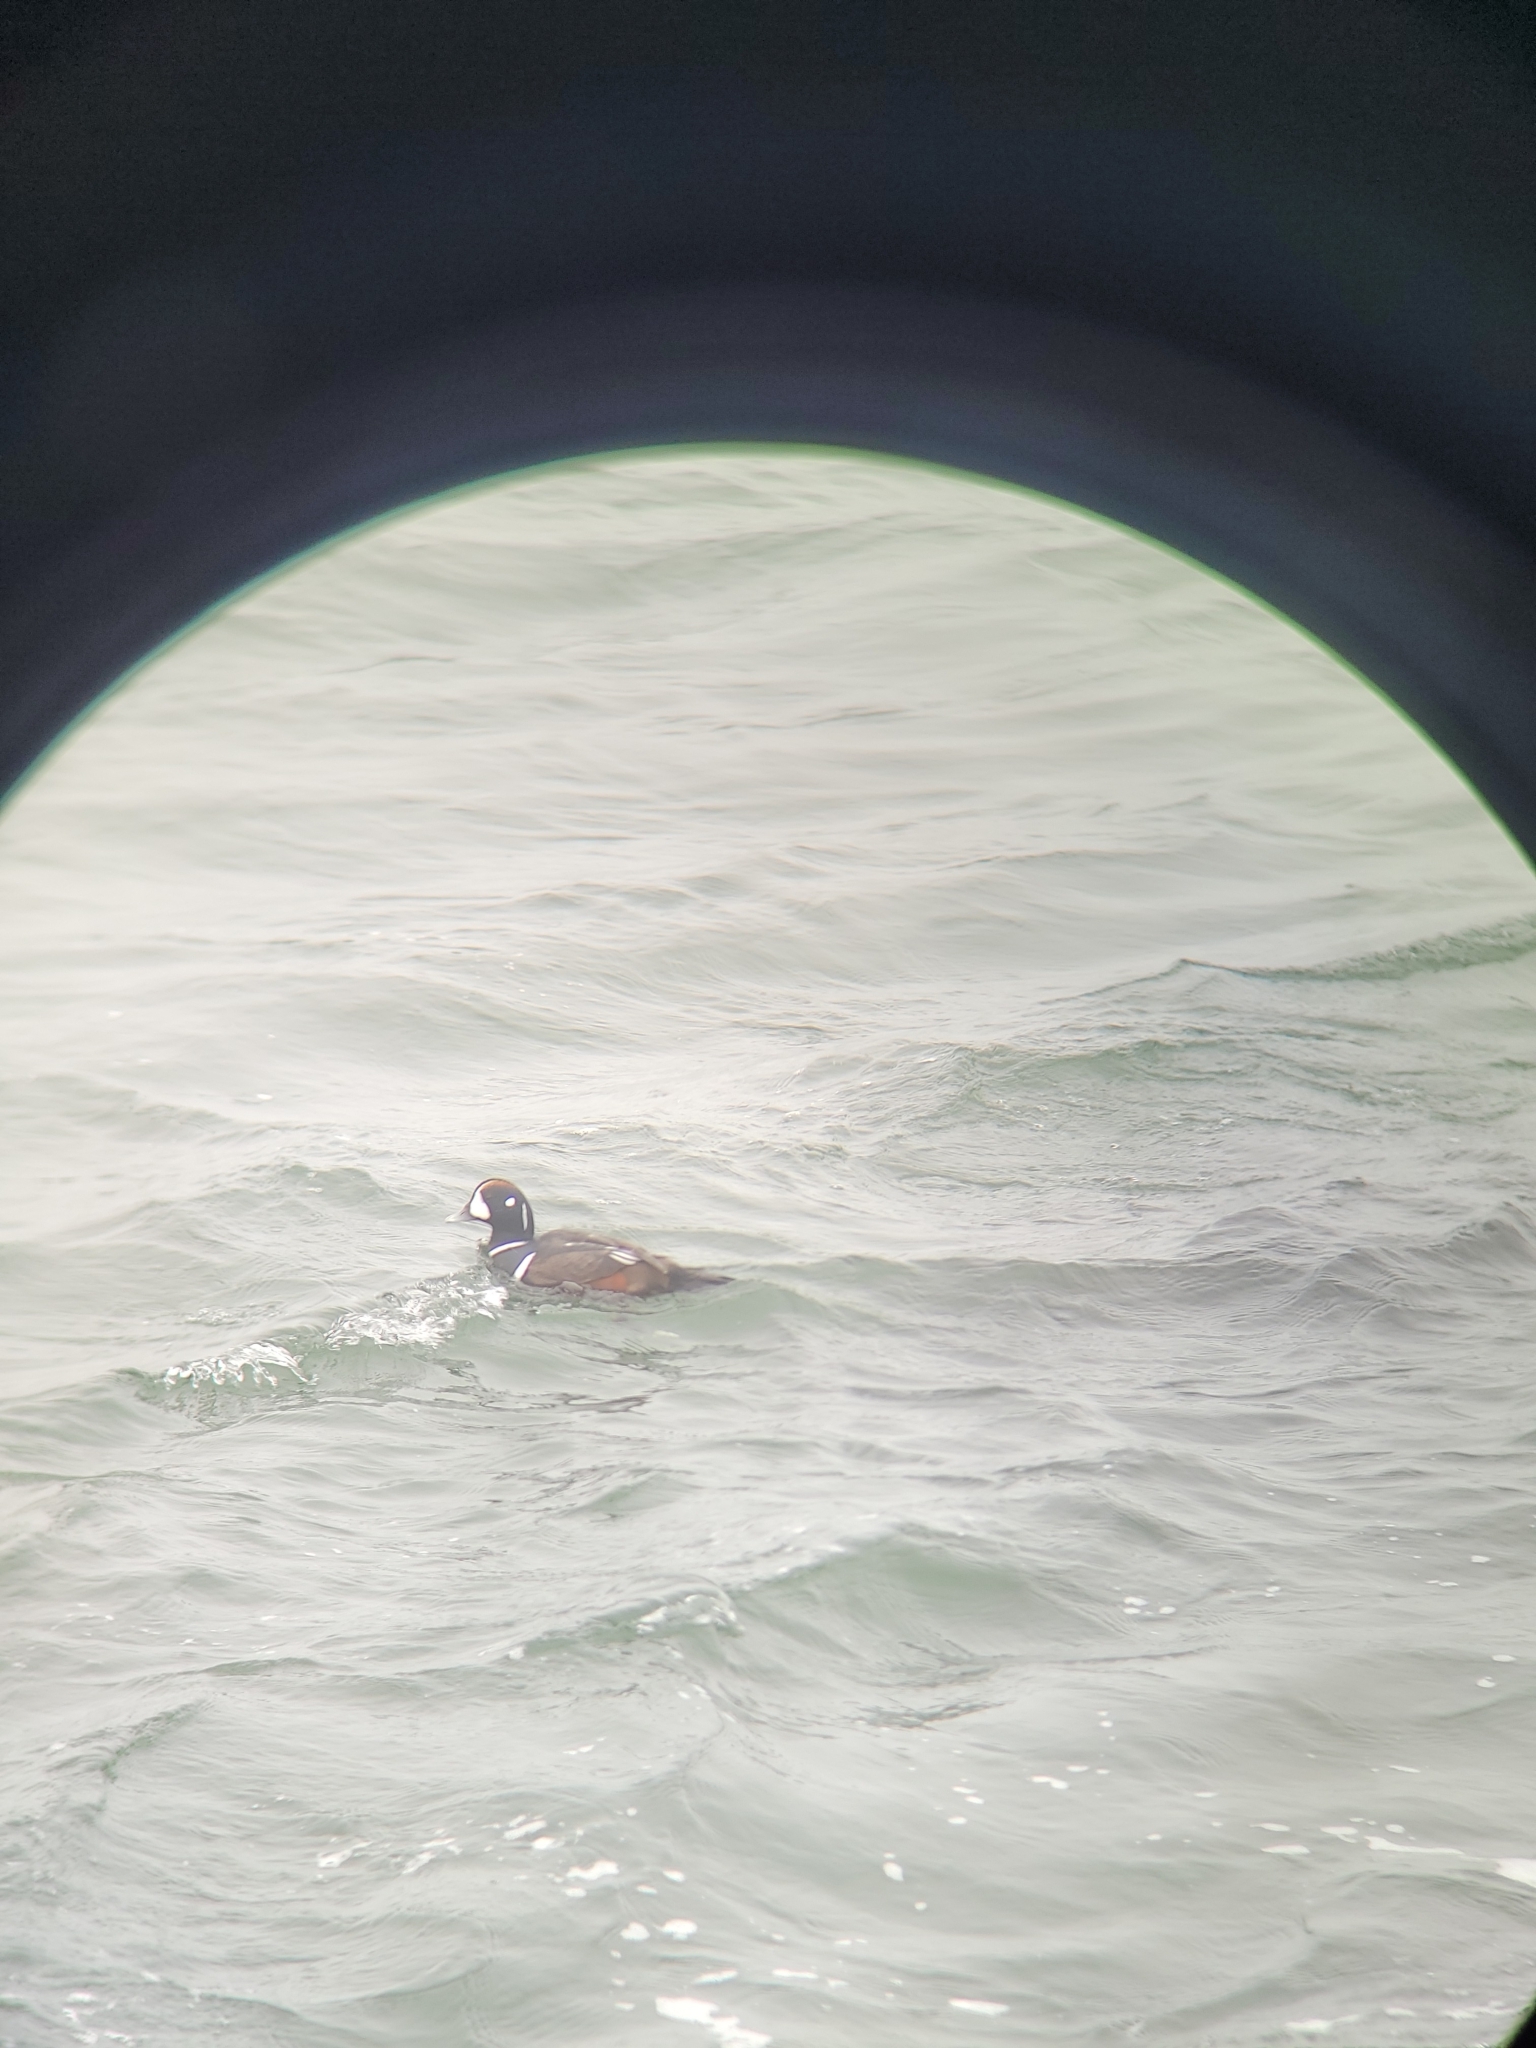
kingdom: Animalia
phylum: Chordata
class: Aves
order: Anseriformes
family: Anatidae
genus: Histrionicus
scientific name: Histrionicus histrionicus
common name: Harlequin duck
